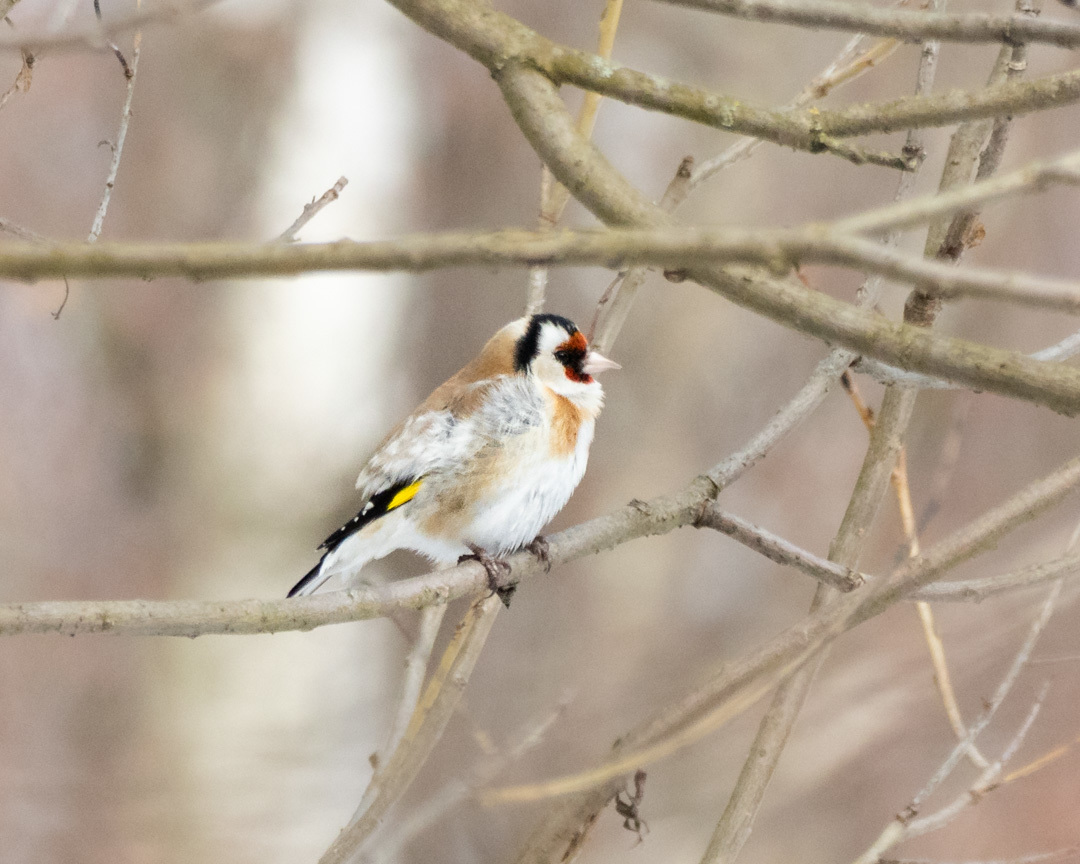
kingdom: Animalia
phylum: Chordata
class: Aves
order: Passeriformes
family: Fringillidae
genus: Carduelis
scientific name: Carduelis carduelis
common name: European goldfinch
